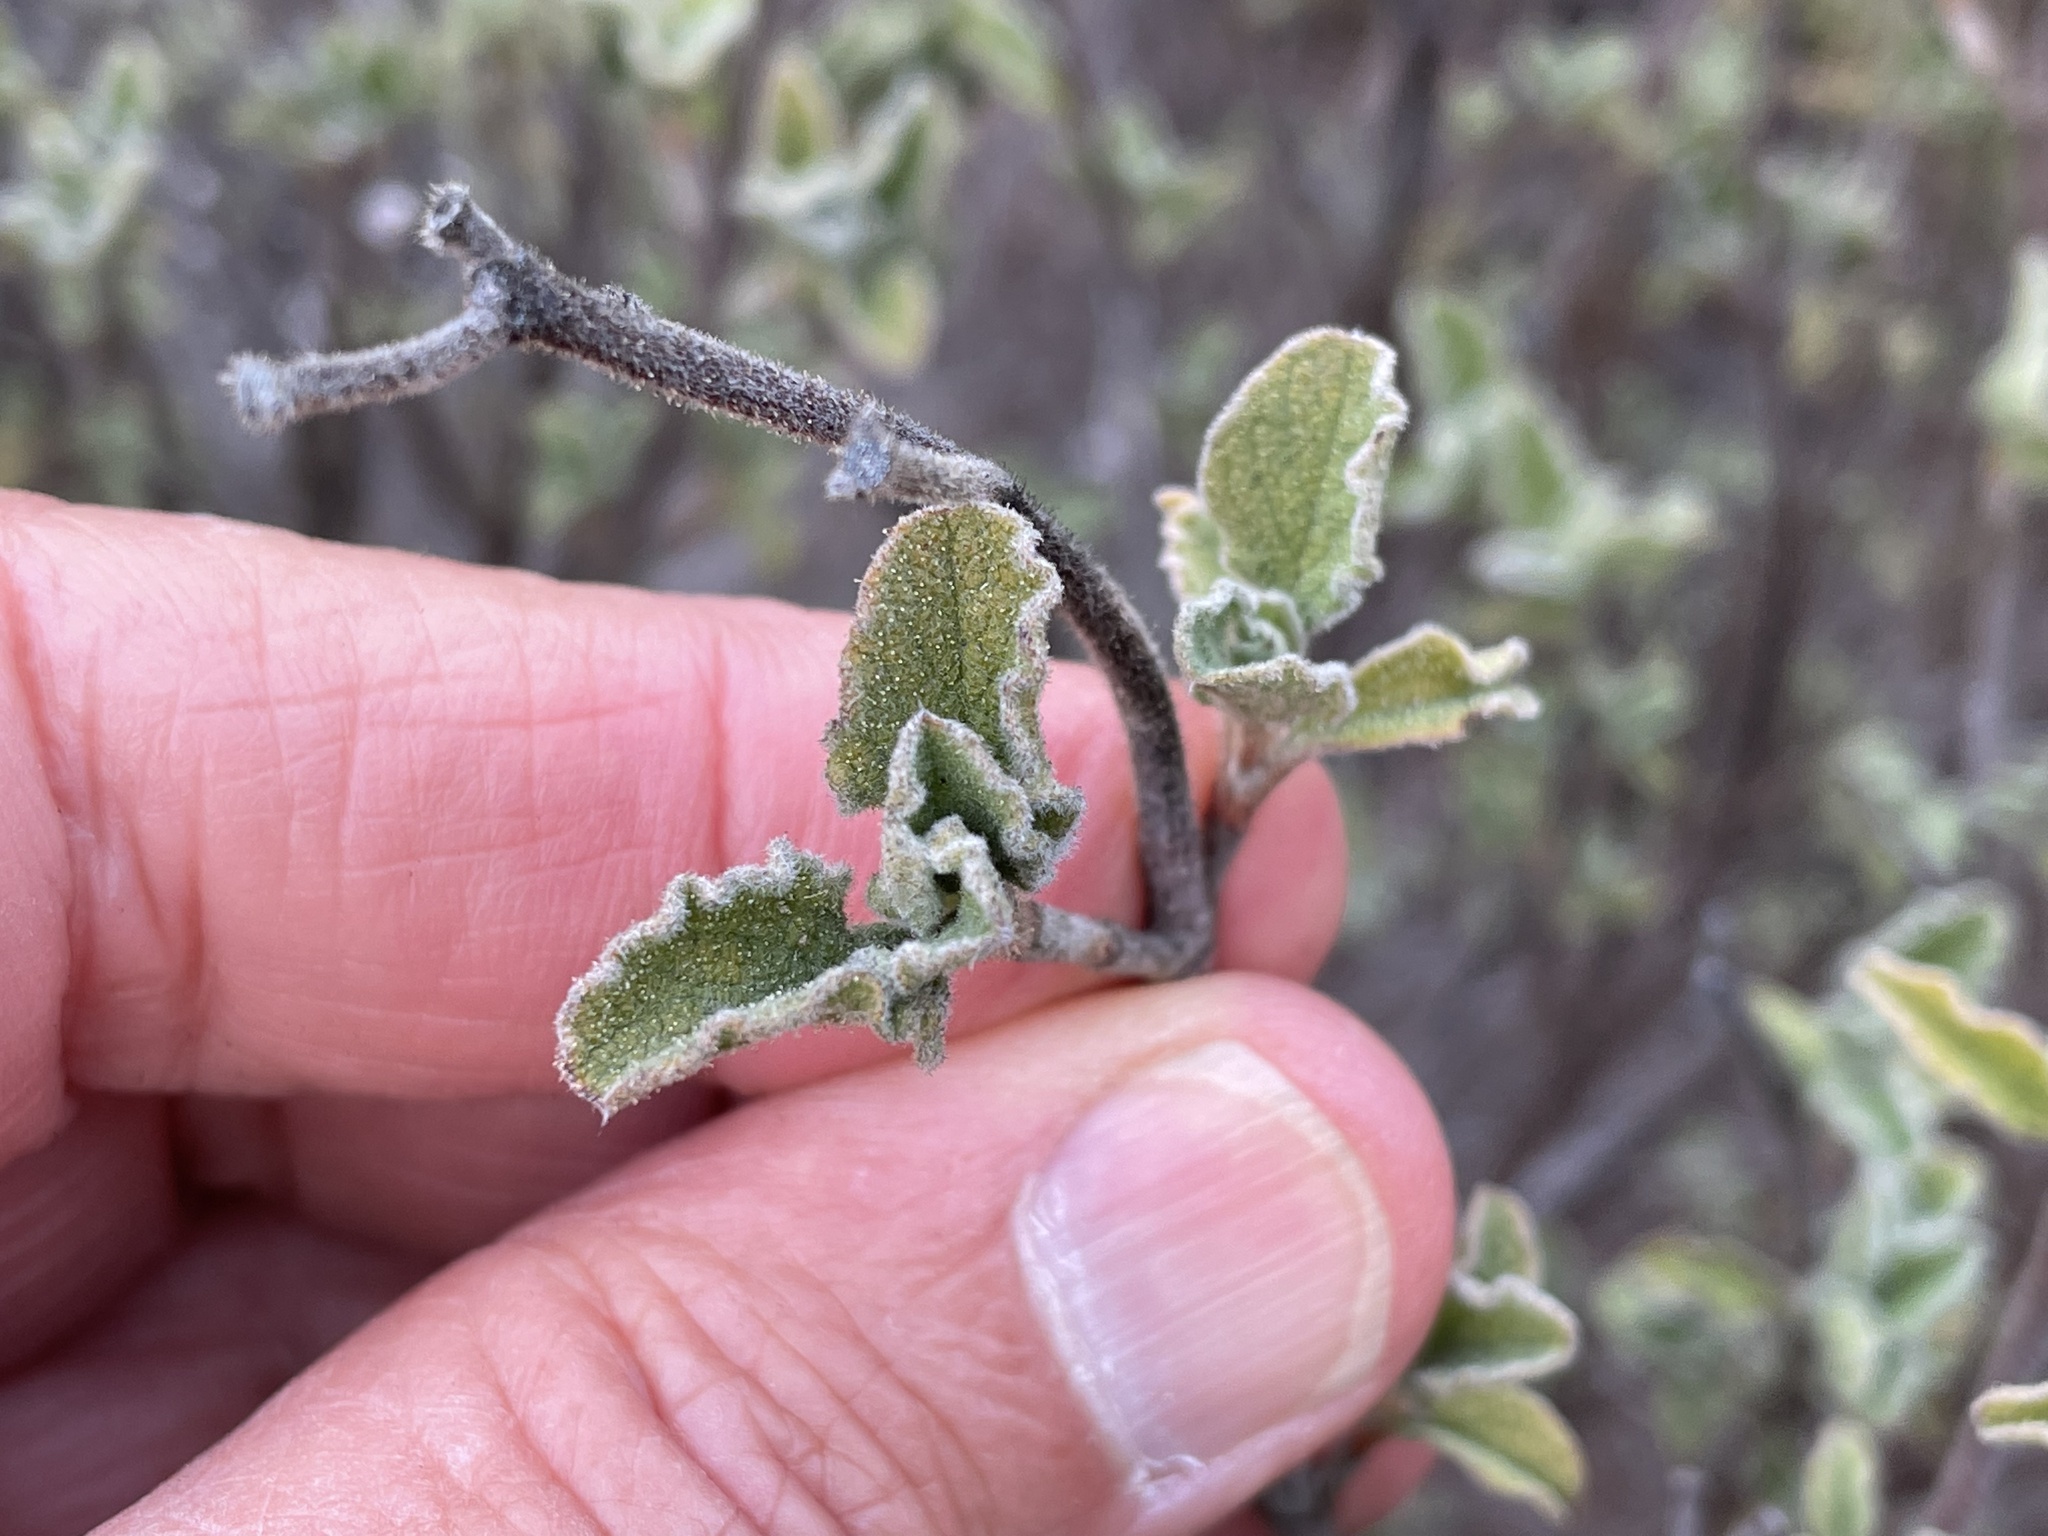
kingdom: Plantae
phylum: Tracheophyta
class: Magnoliopsida
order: Malvales
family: Cistaceae
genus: Cistus
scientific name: Cistus creticus
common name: Cretan rockrose
